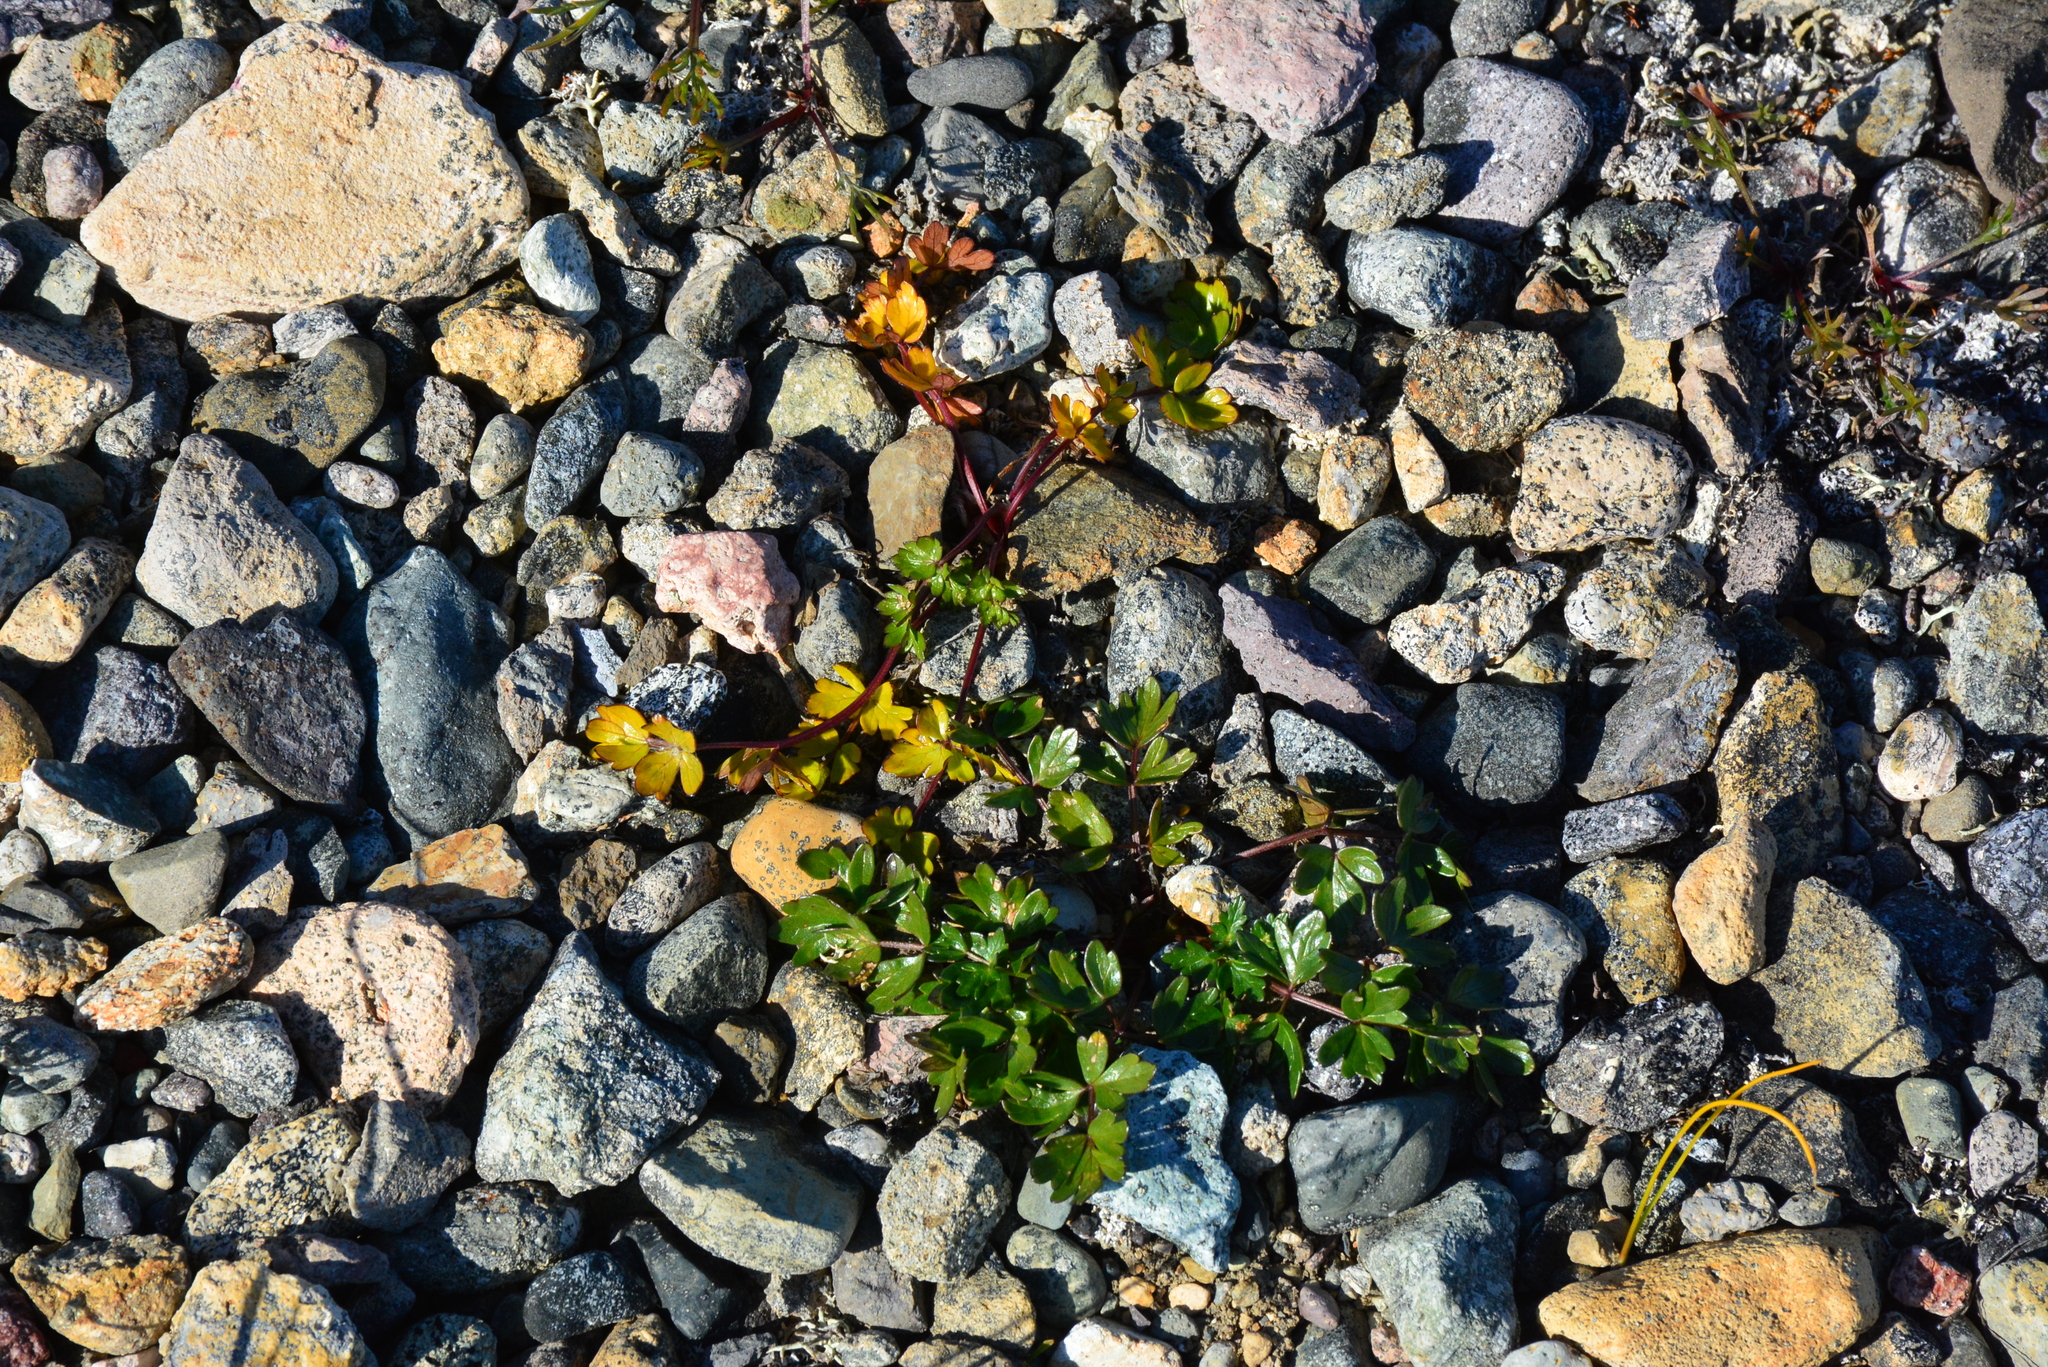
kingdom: Plantae
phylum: Tracheophyta
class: Magnoliopsida
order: Apiales
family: Apiaceae
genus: Orumbella
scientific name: Orumbella macounii
